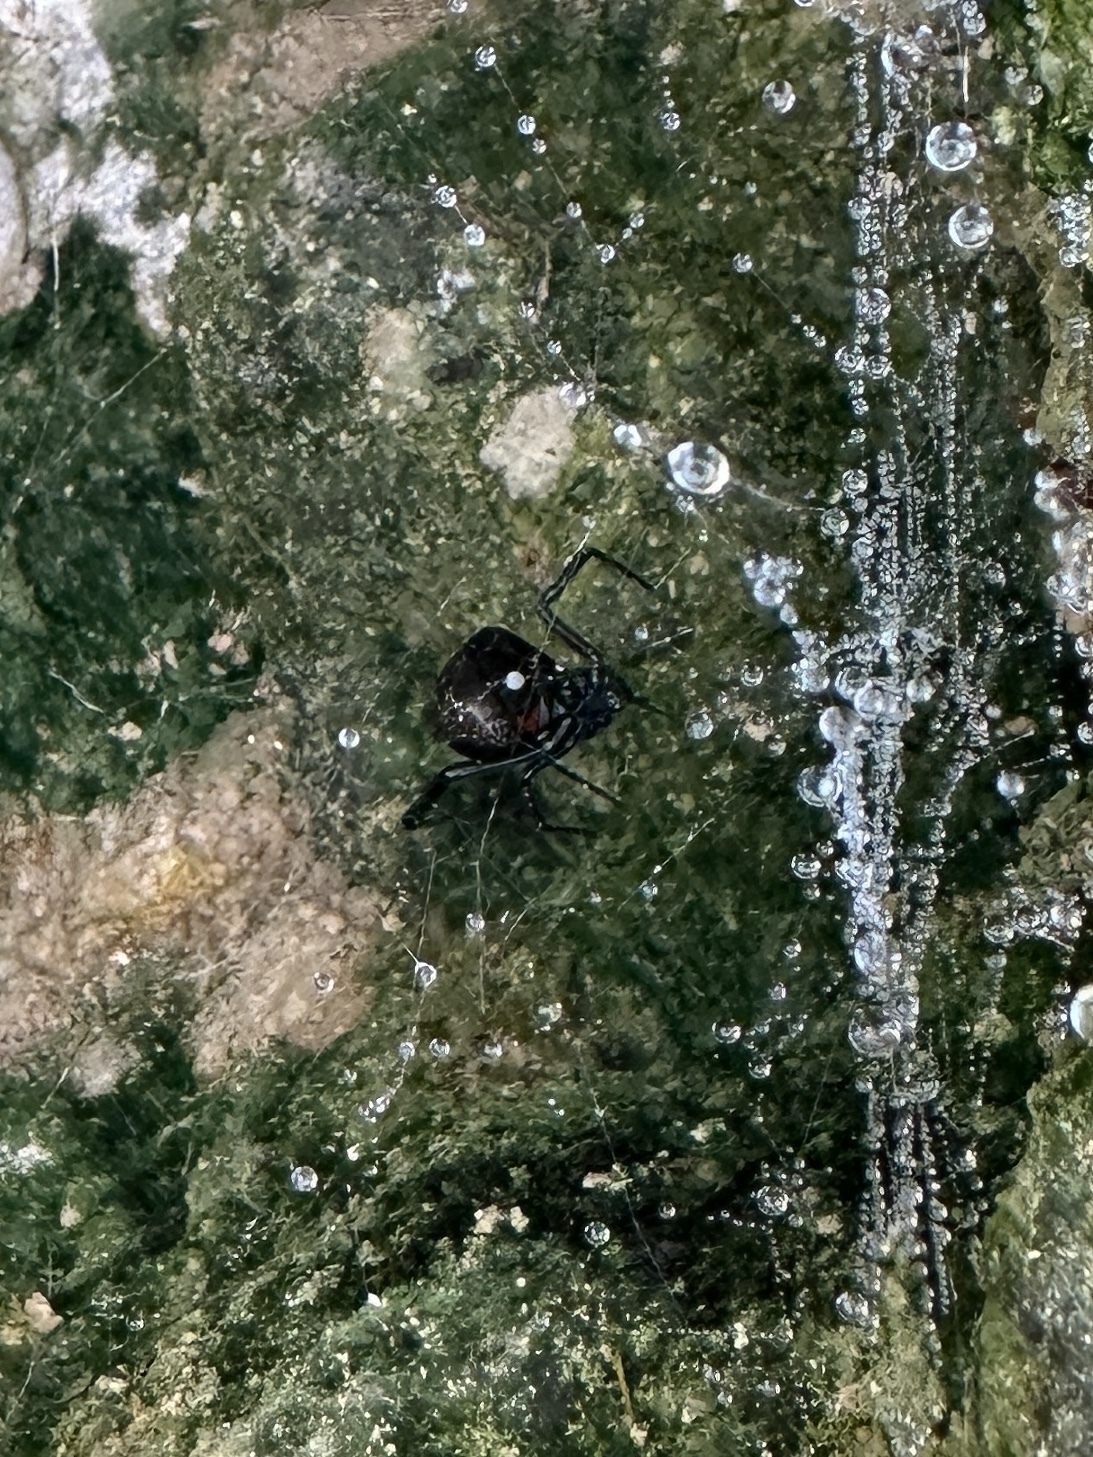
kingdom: Animalia
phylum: Arthropoda
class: Arachnida
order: Araneae
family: Theridiidae
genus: Latrodectus
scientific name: Latrodectus hesperus
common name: Western black widow
